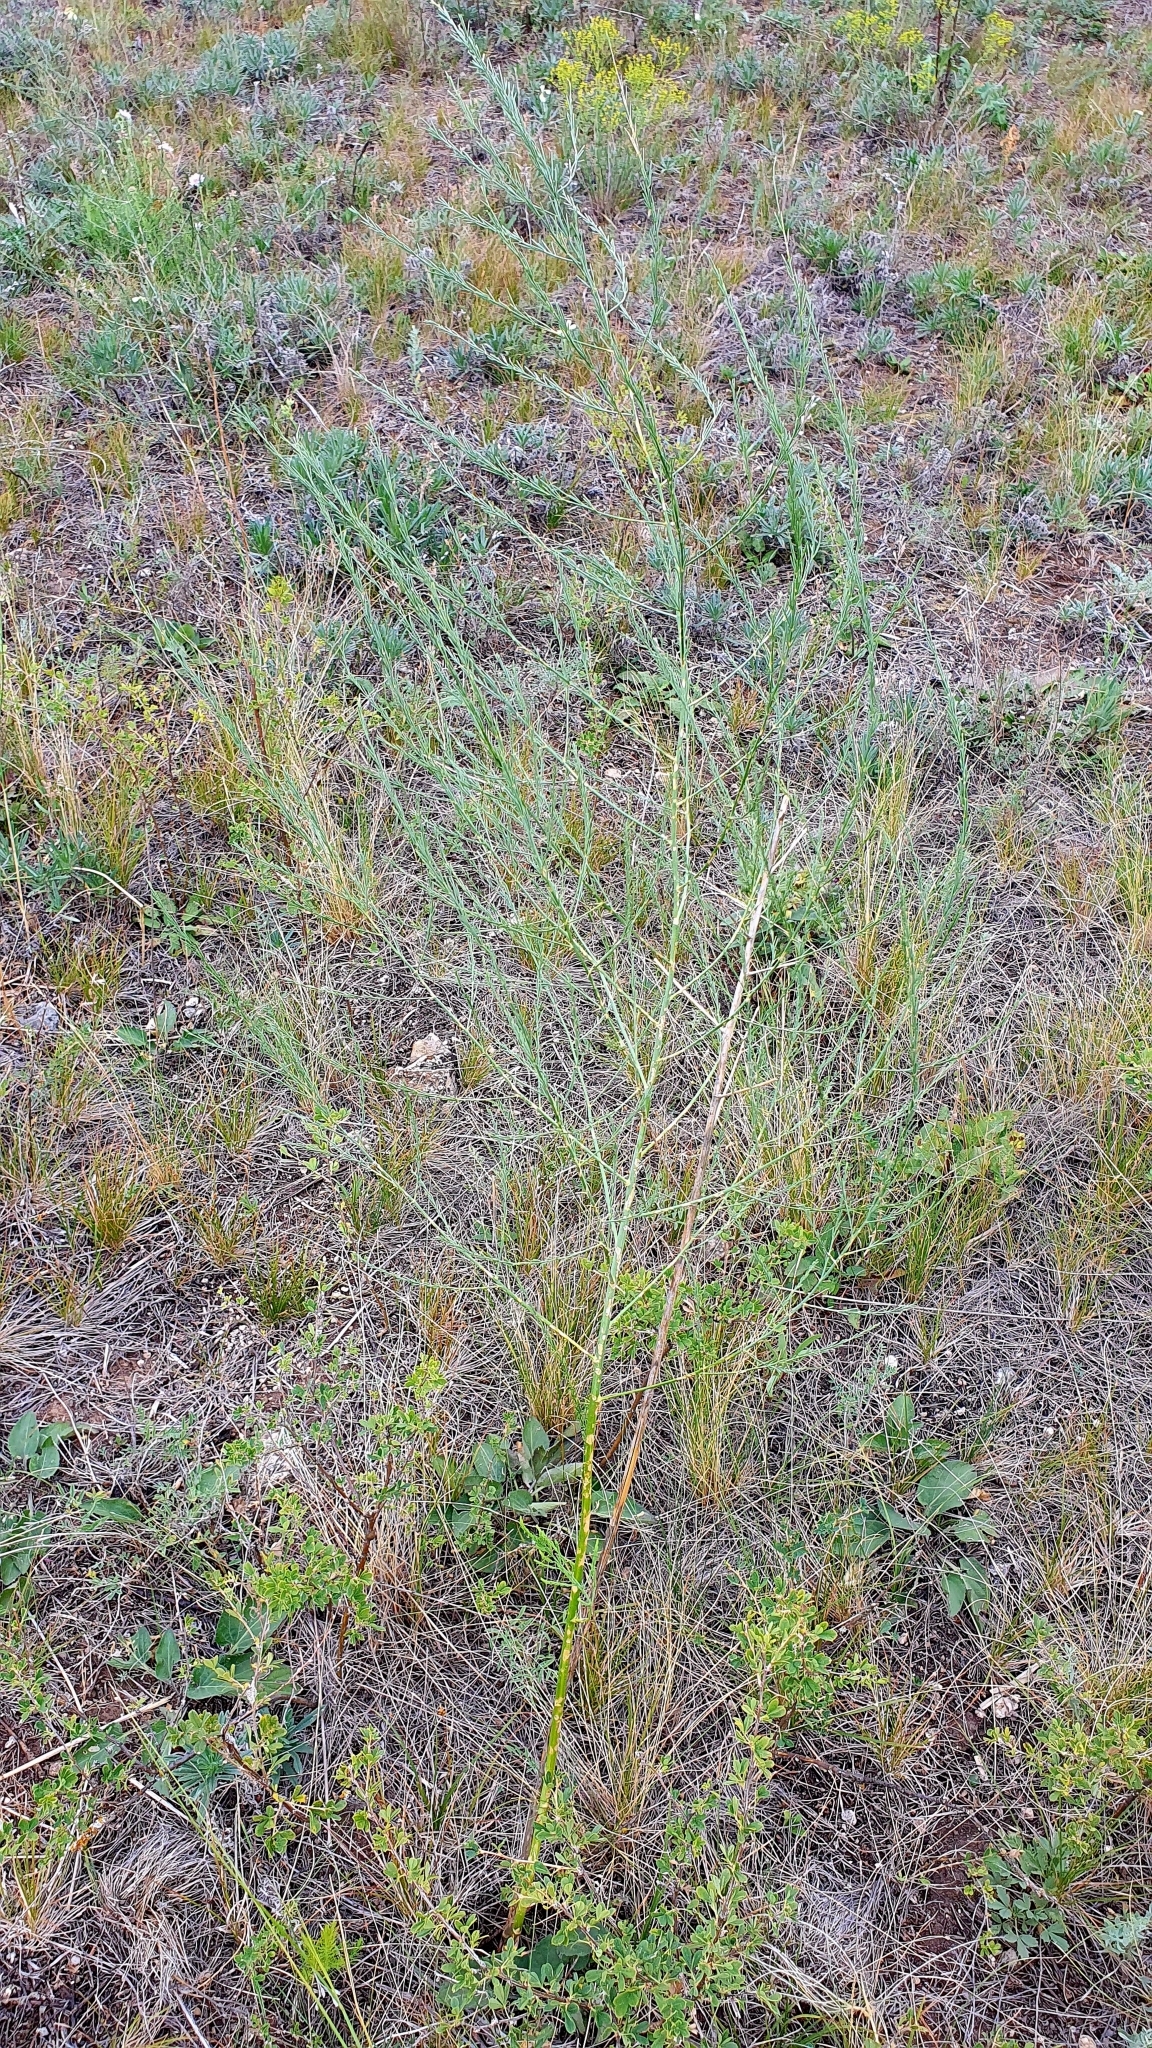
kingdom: Plantae
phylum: Tracheophyta
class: Liliopsida
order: Asparagales
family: Asparagaceae
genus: Asparagus
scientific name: Asparagus officinalis
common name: Garden asparagus
